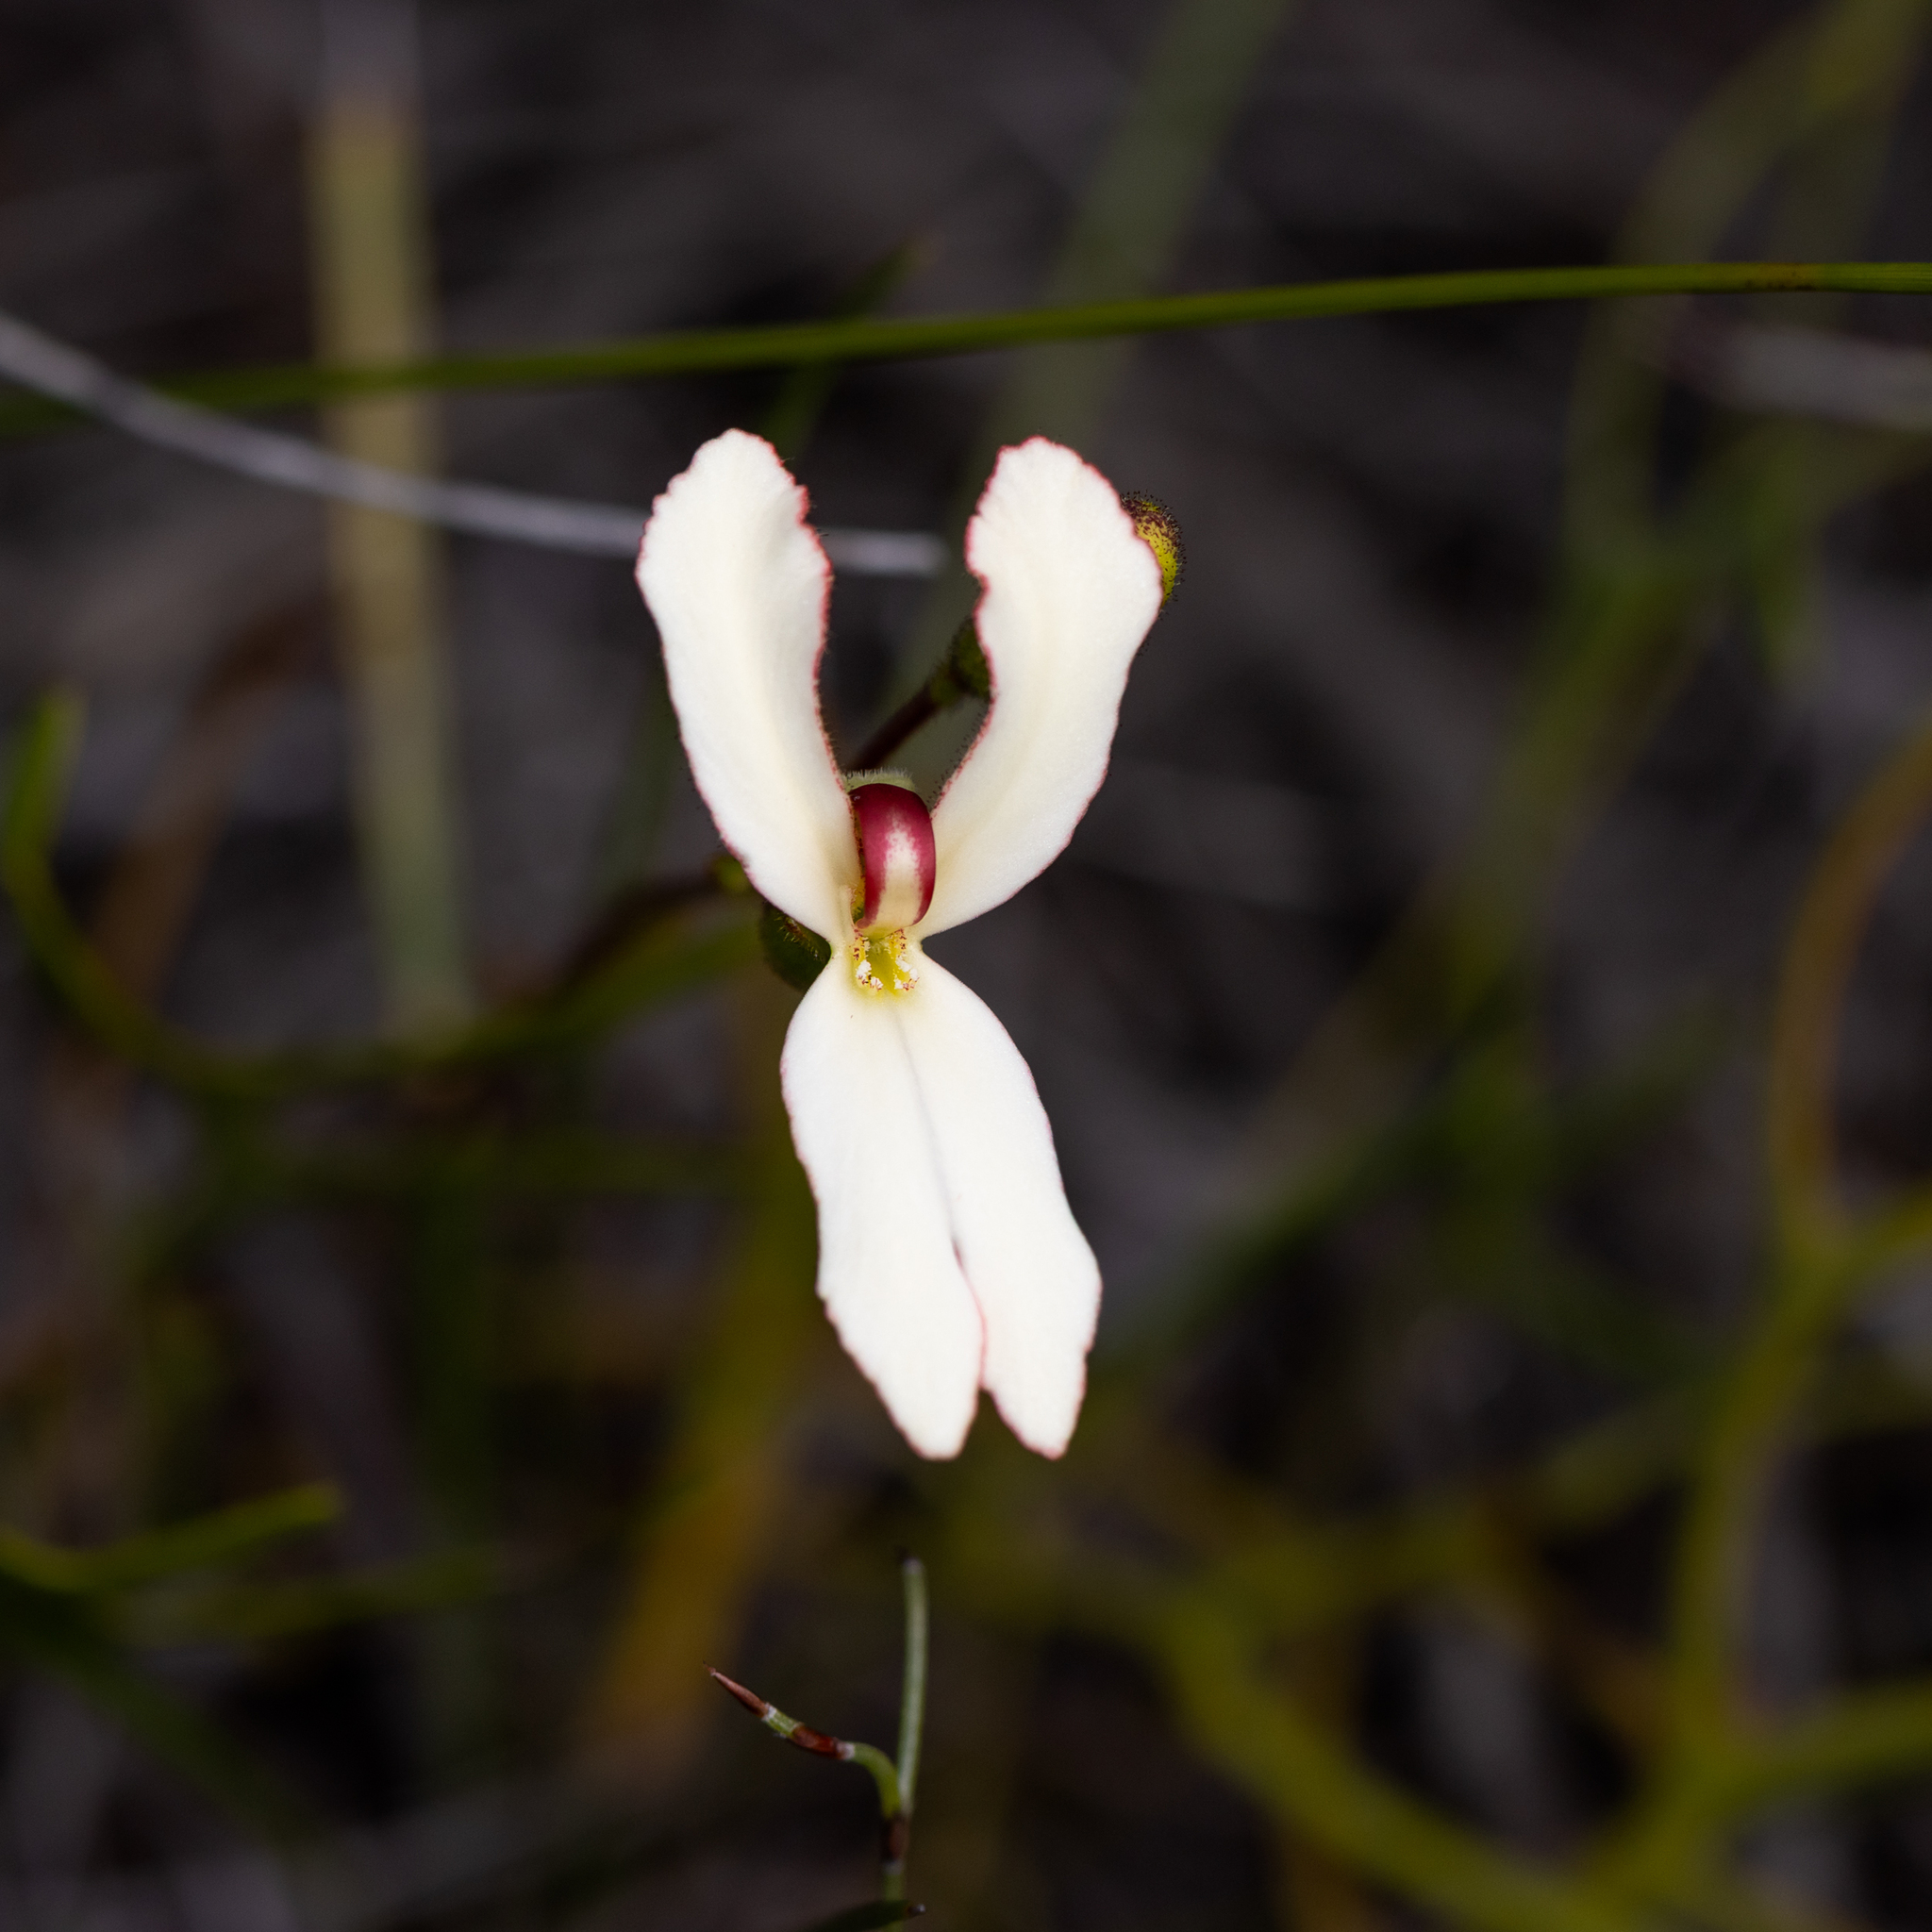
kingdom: Plantae
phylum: Tracheophyta
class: Magnoliopsida
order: Asterales
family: Stylidiaceae
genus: Stylidium
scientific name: Stylidium schoenoides
